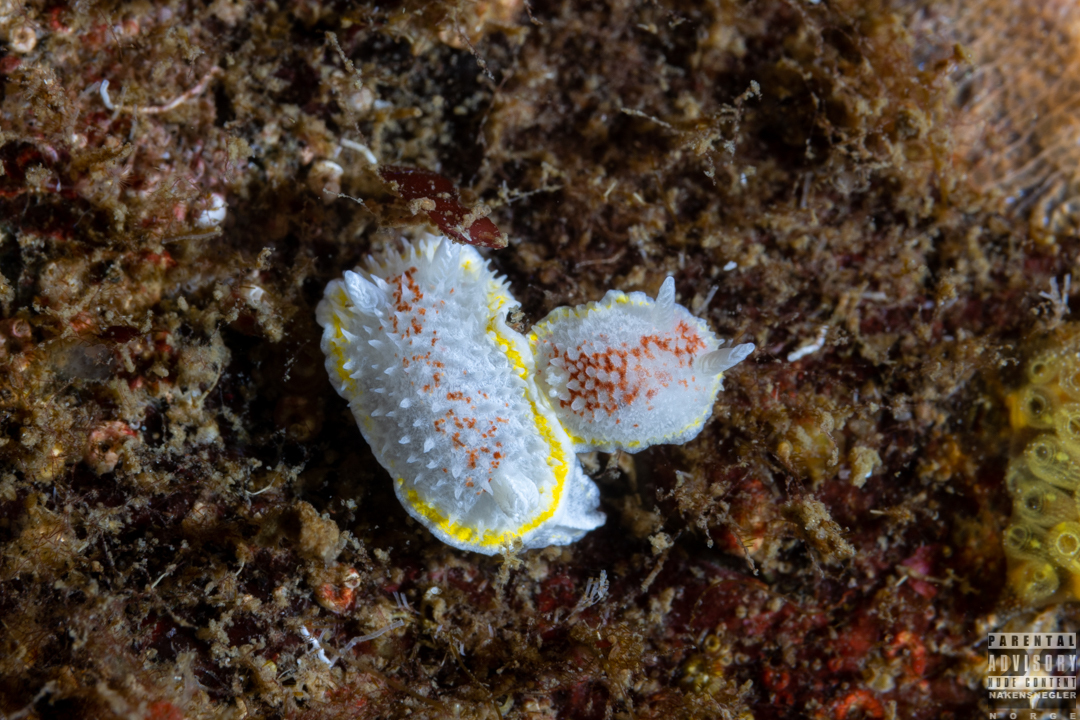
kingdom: Animalia
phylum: Mollusca
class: Gastropoda
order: Nudibranchia
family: Calycidorididae
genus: Diaphorodoris
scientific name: Diaphorodoris luteocincta
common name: Fried egg nudibranch
